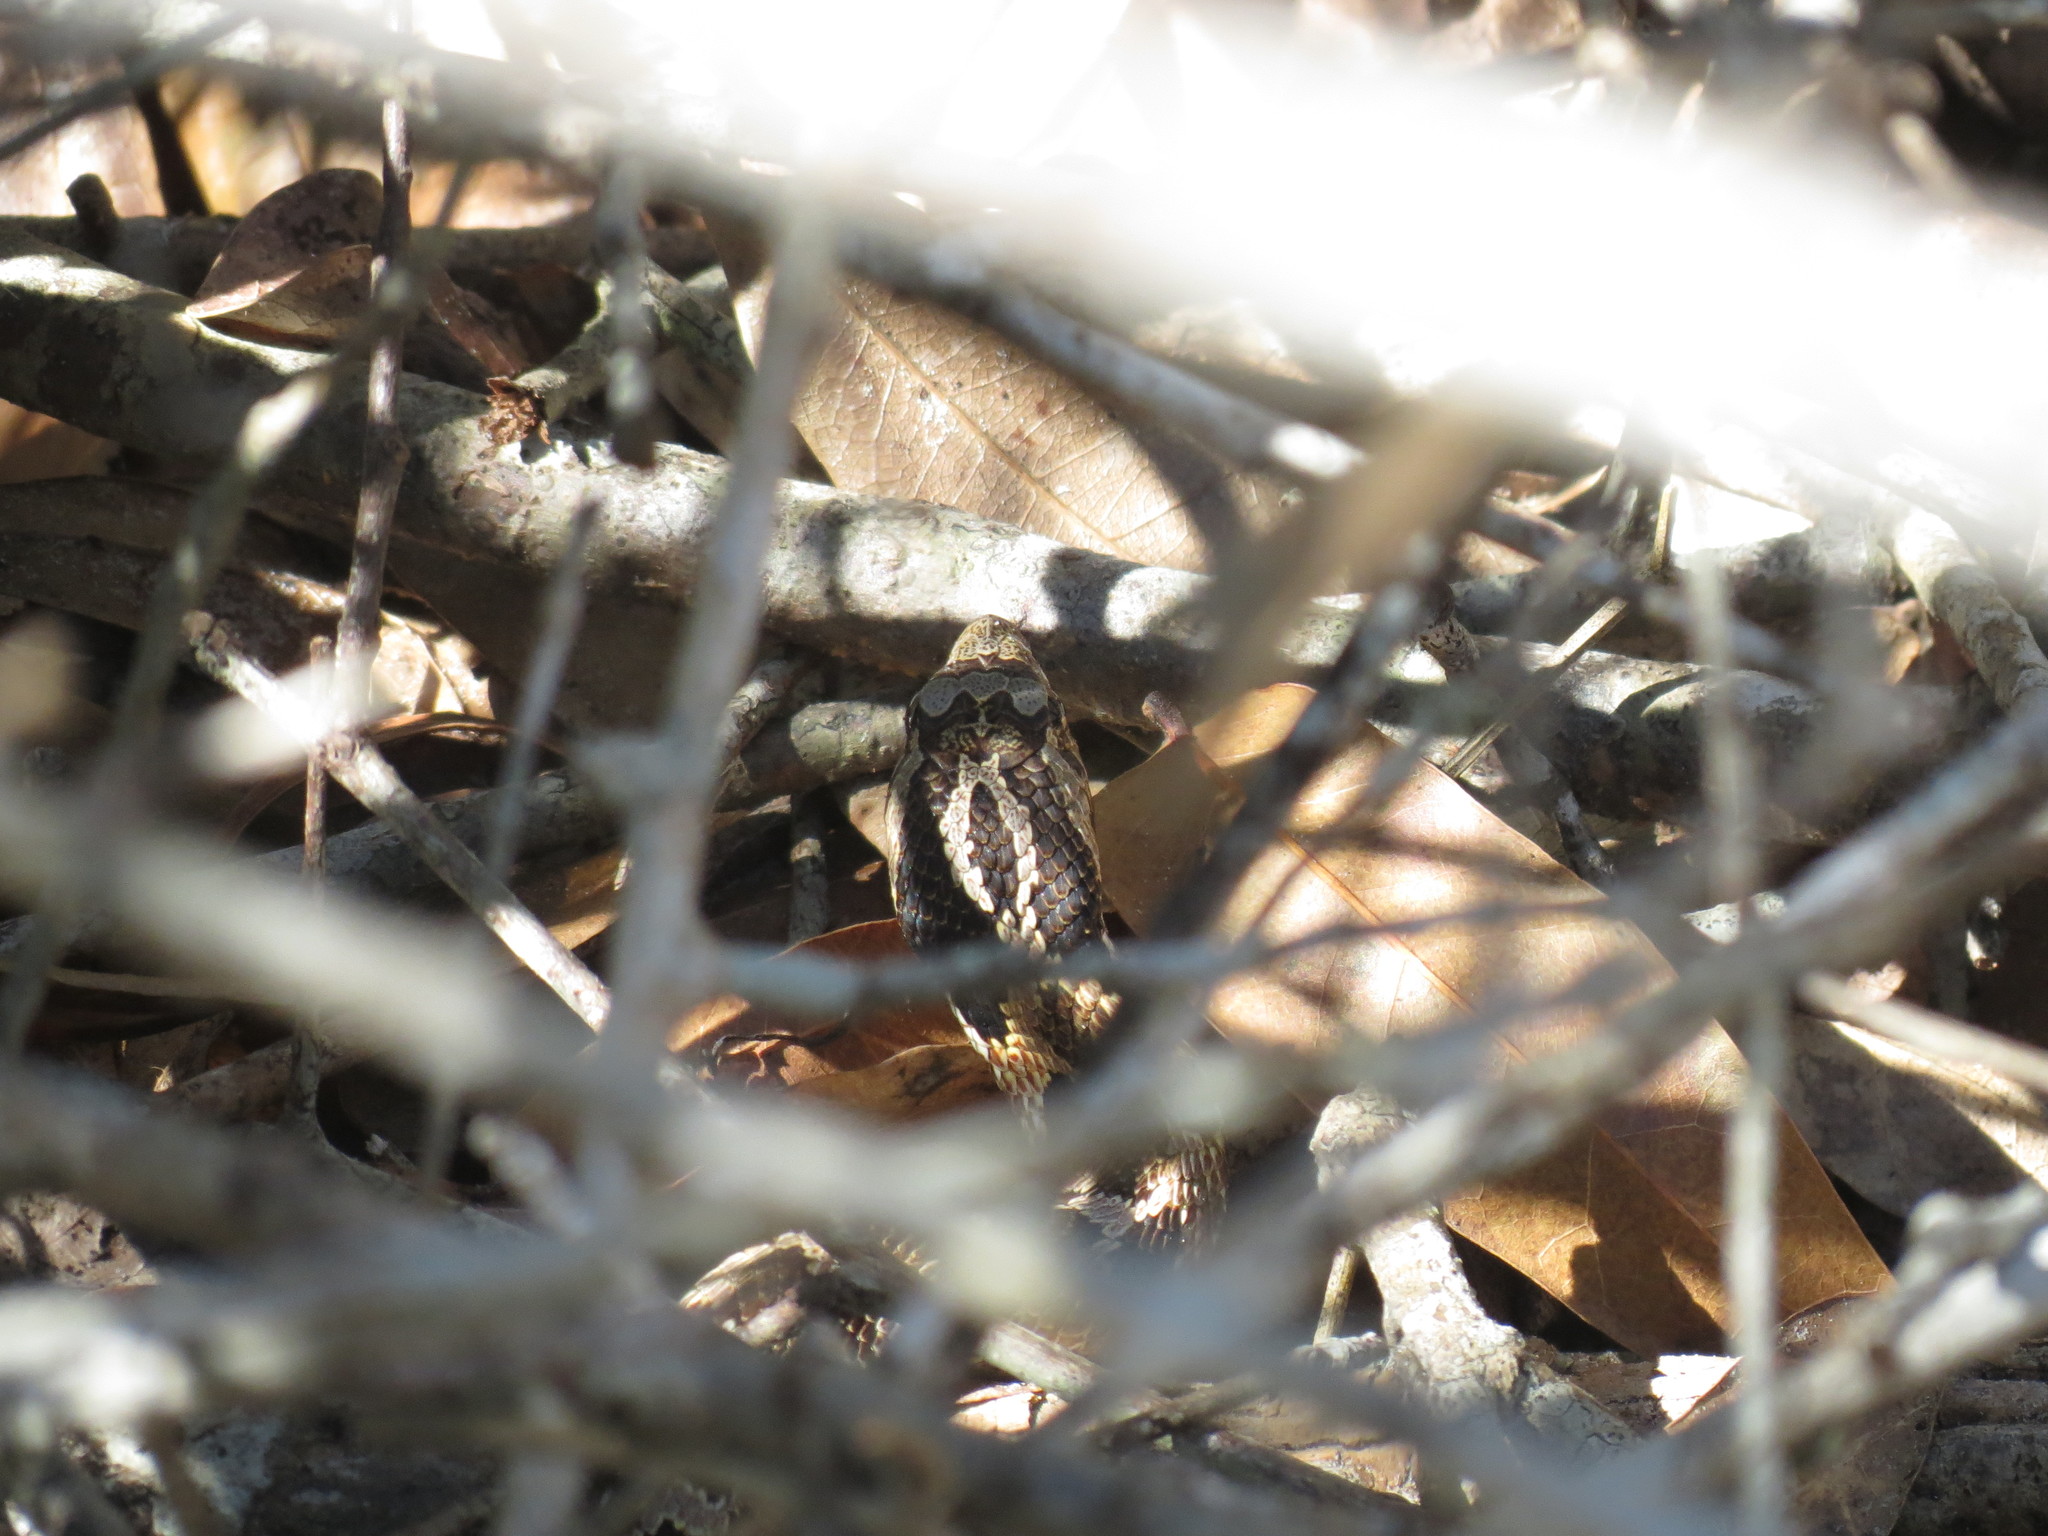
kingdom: Animalia
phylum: Chordata
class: Squamata
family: Colubridae
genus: Heterodon
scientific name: Heterodon platirhinos
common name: Eastern hognose snake
